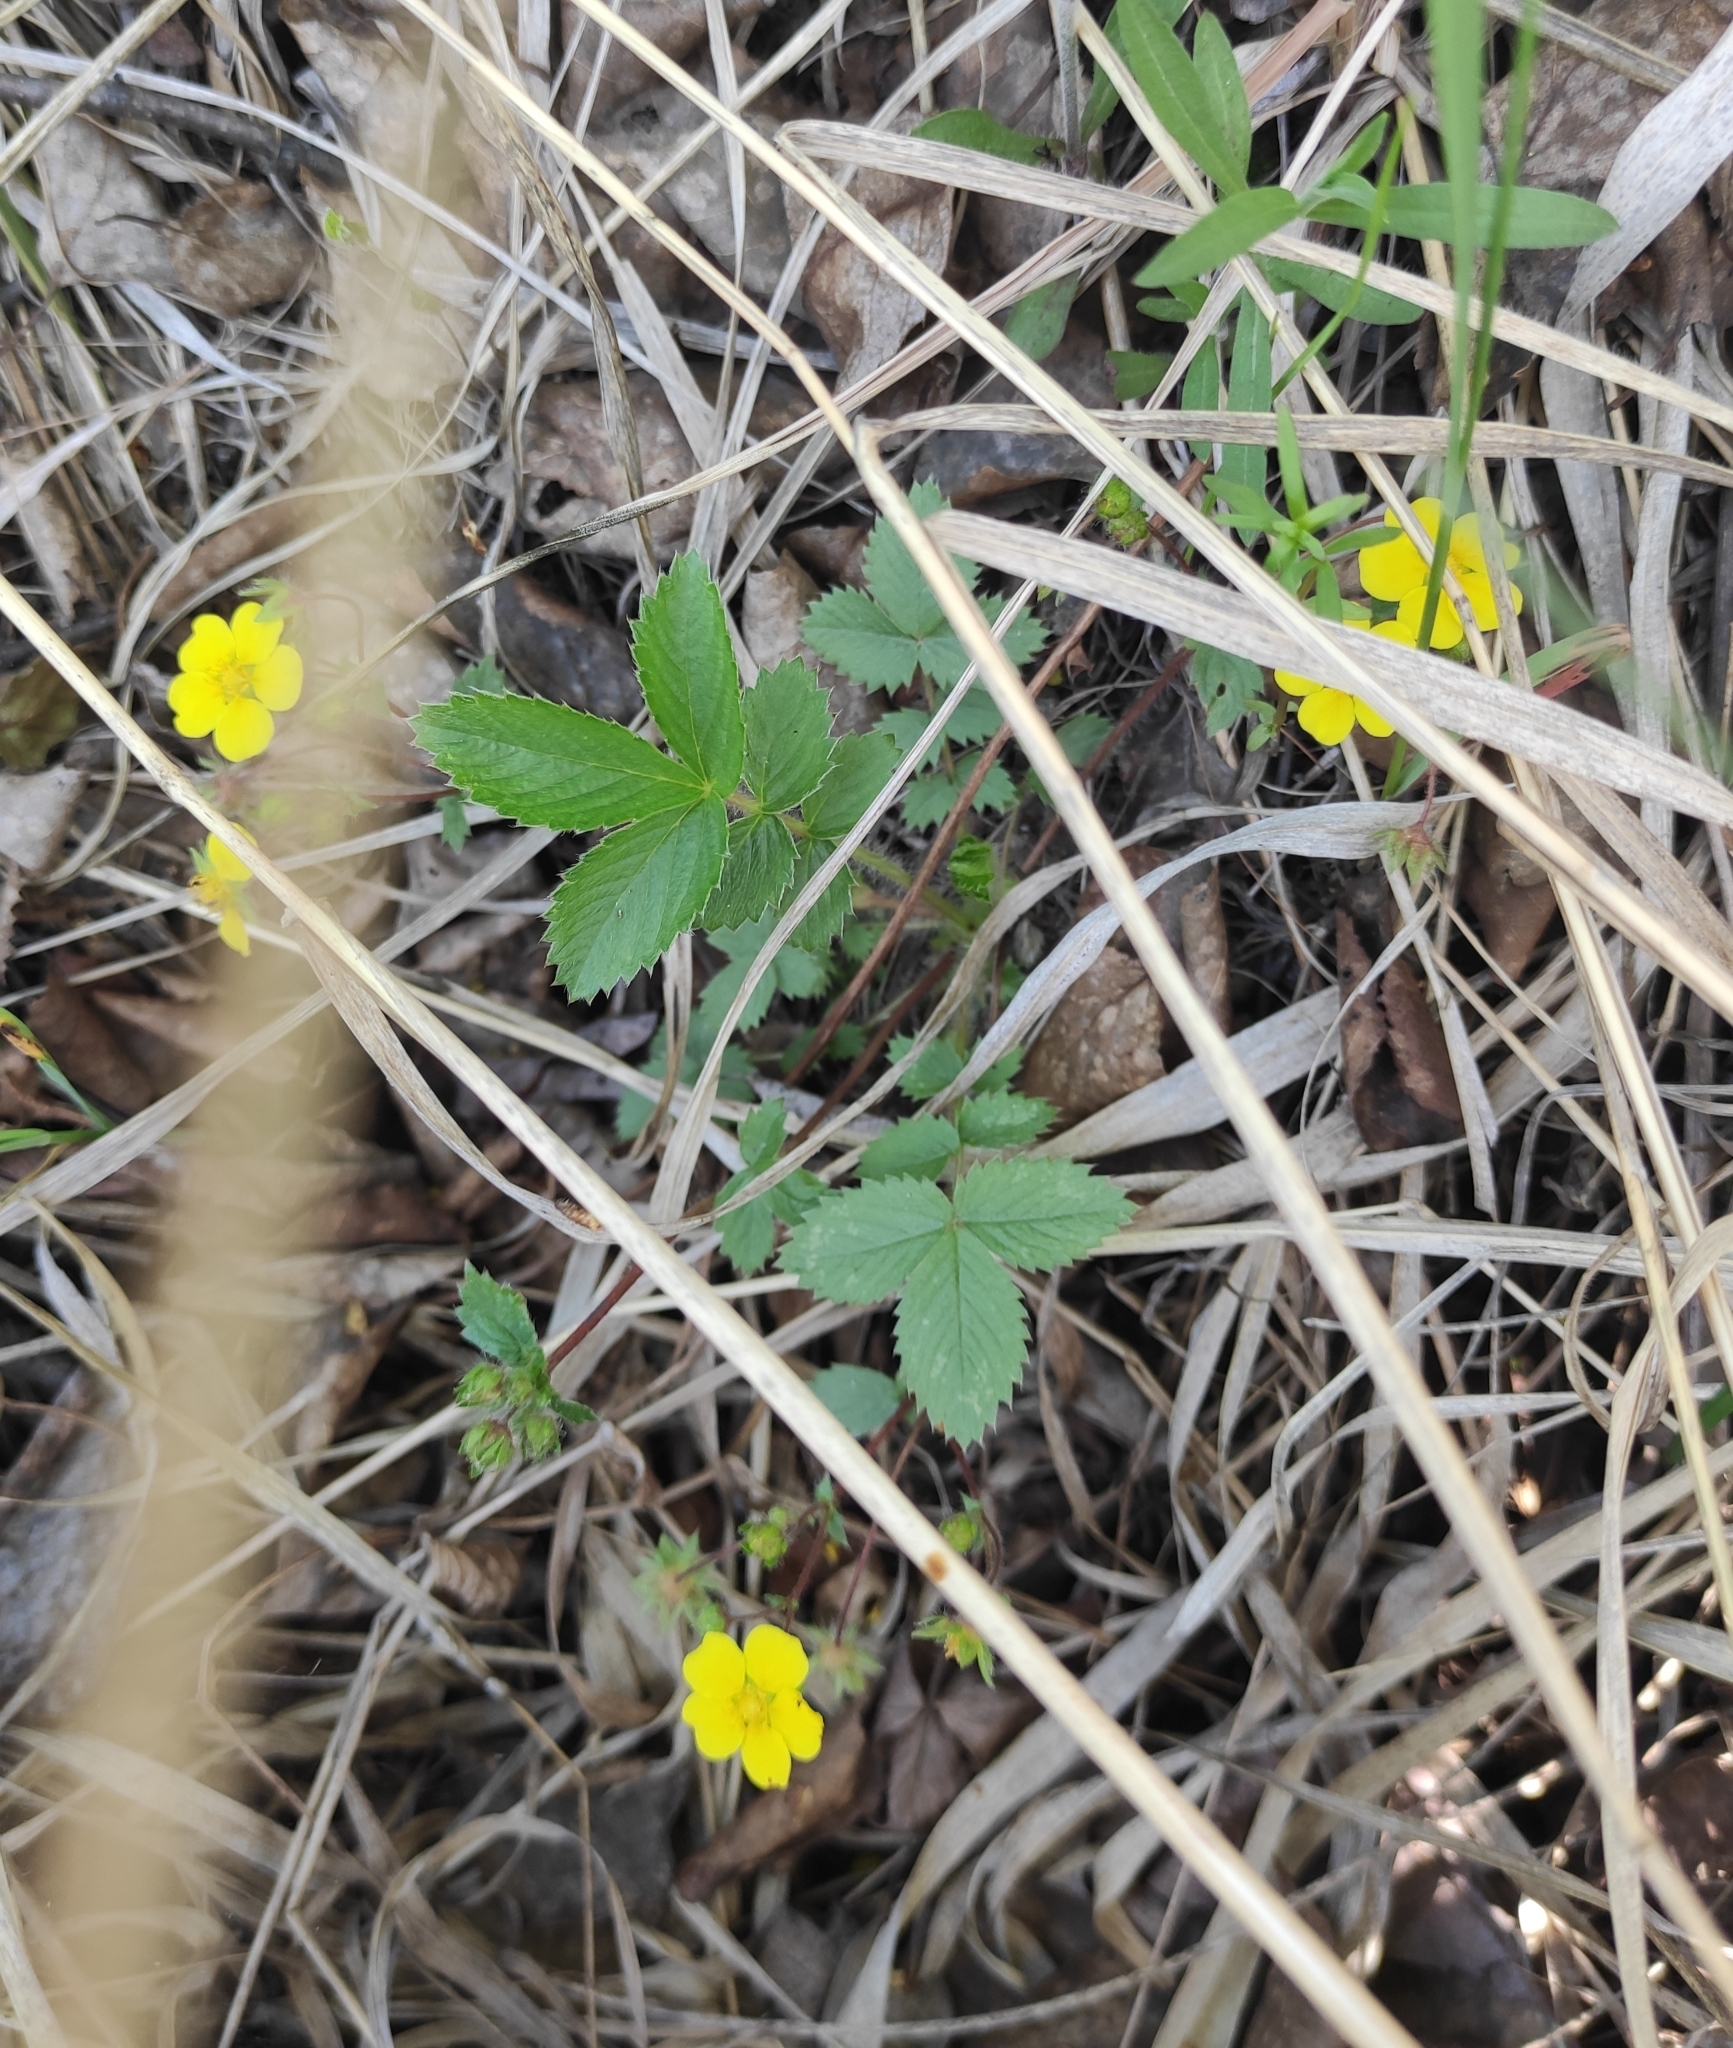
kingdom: Plantae
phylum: Tracheophyta
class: Magnoliopsida
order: Rosales
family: Rosaceae
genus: Potentilla
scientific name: Potentilla fragarioides
